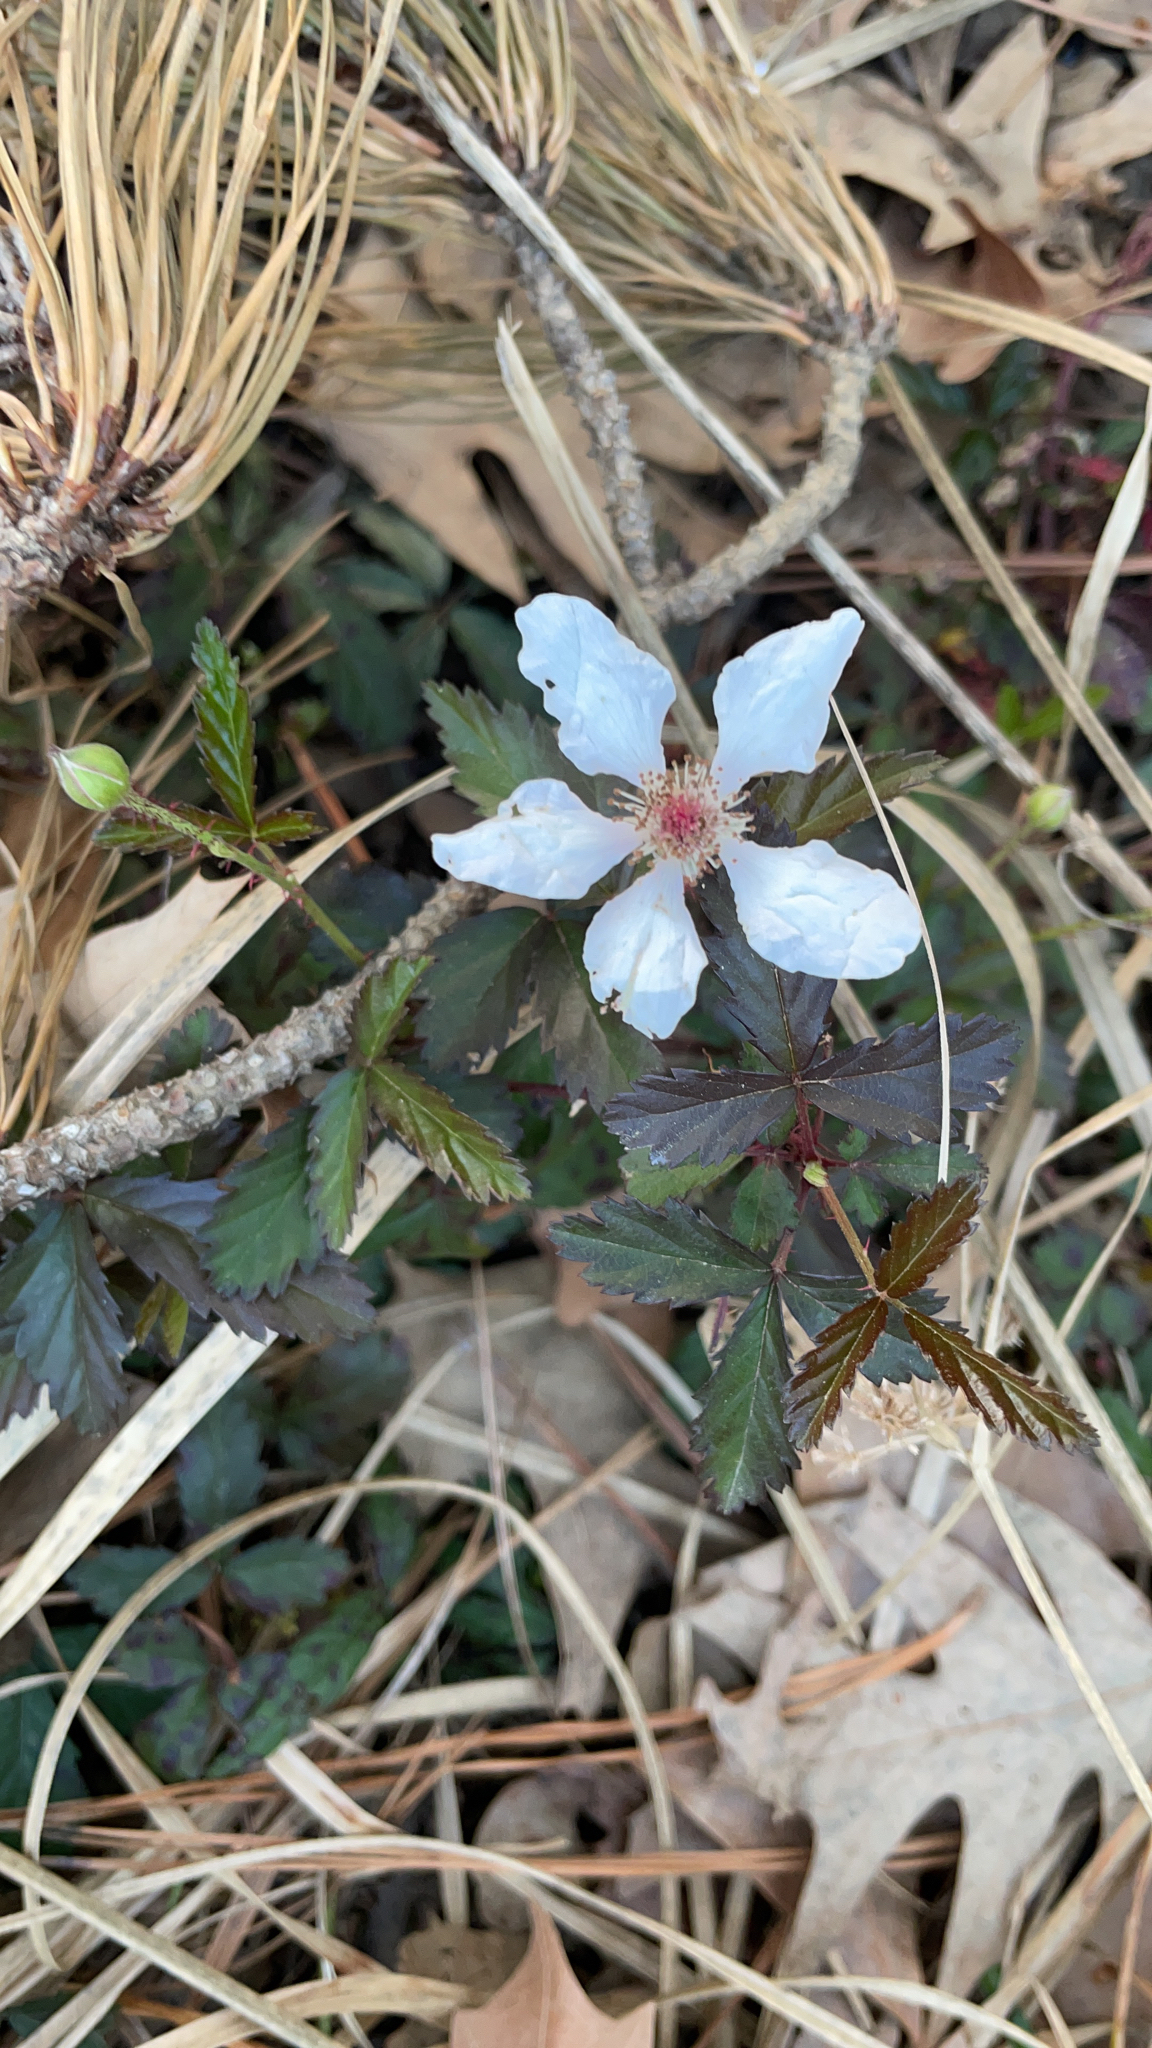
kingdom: Plantae
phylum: Tracheophyta
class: Magnoliopsida
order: Rosales
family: Rosaceae
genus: Rubus
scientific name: Rubus trivialis
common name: Southern dewberry
